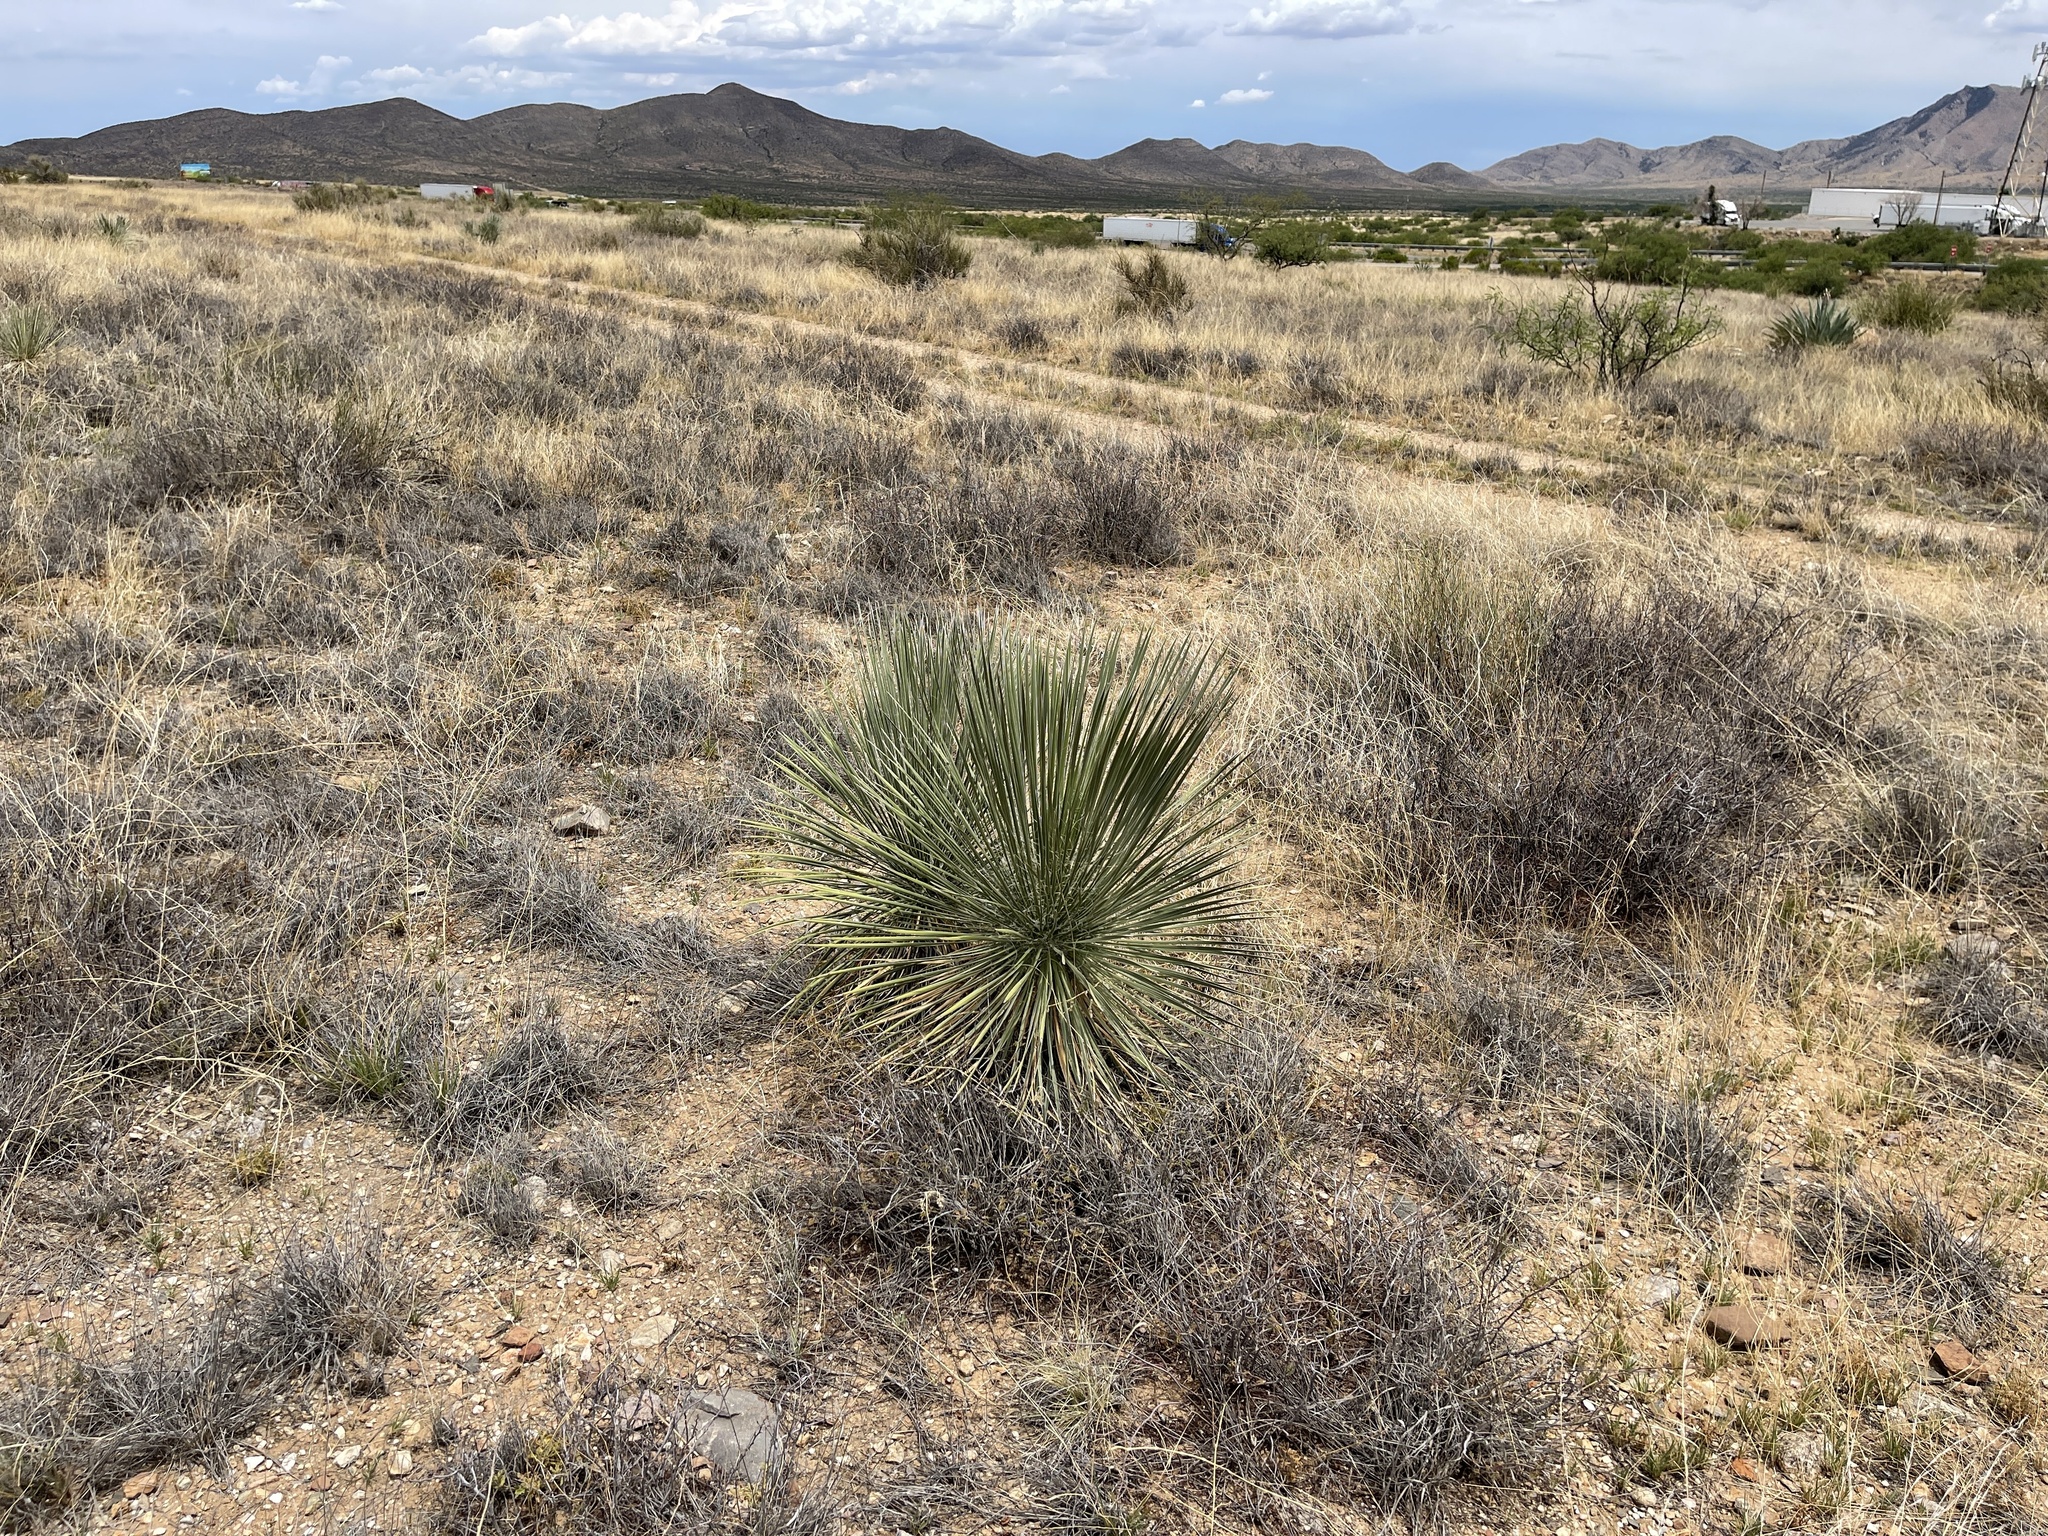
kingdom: Plantae
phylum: Tracheophyta
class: Liliopsida
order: Asparagales
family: Asparagaceae
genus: Yucca
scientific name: Yucca elata
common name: Palmella
